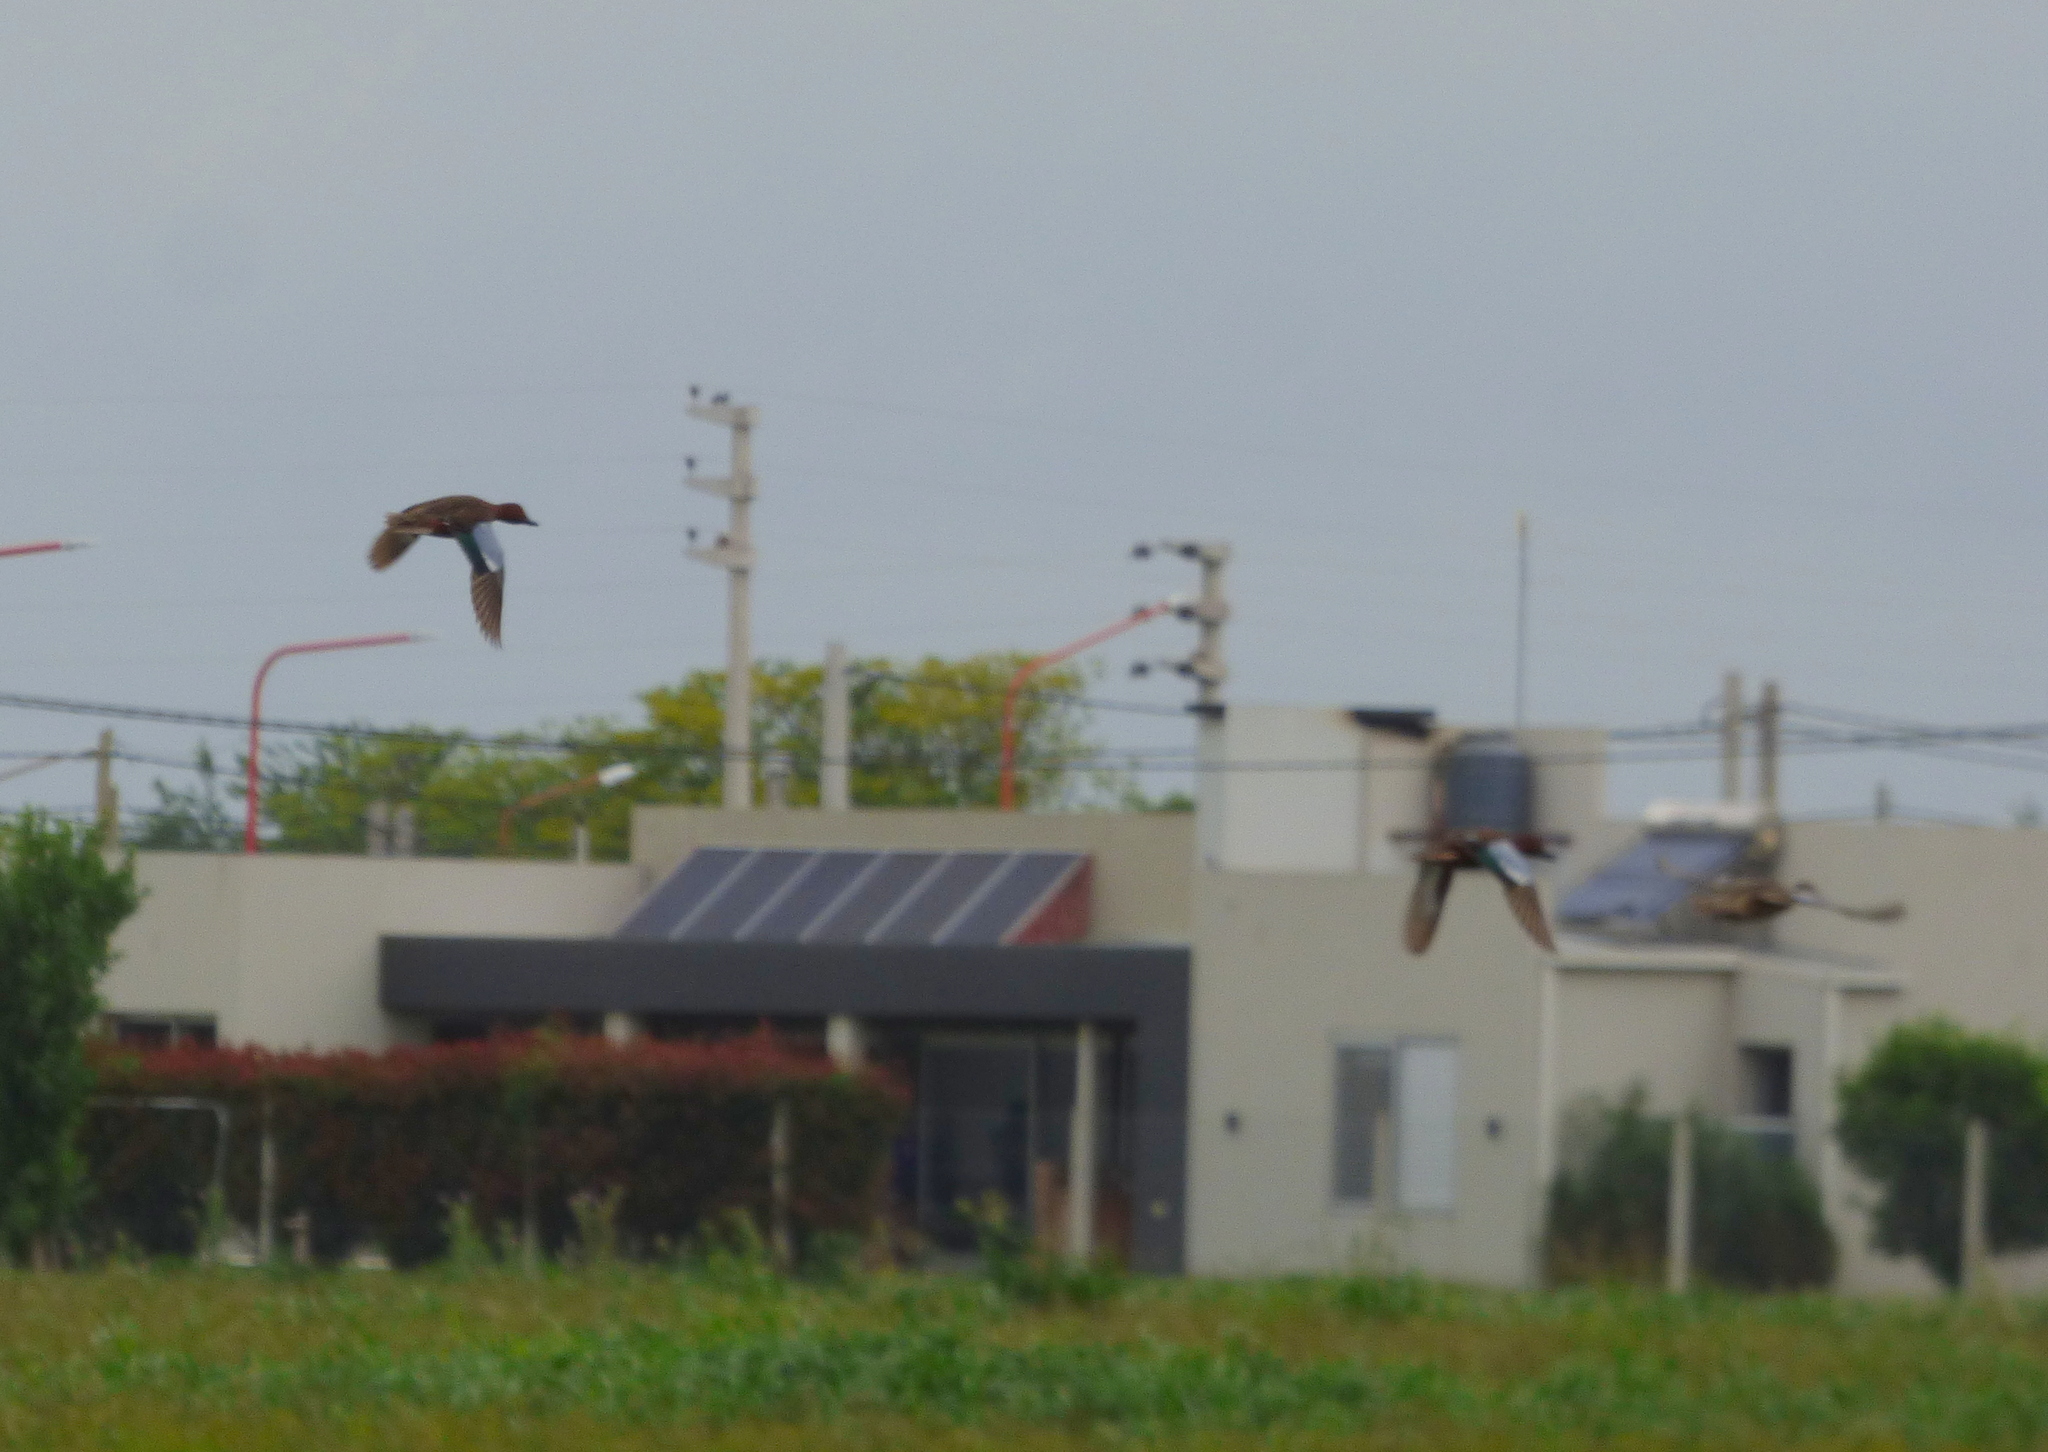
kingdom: Animalia
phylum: Chordata
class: Aves
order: Anseriformes
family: Anatidae
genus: Spatula
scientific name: Spatula cyanoptera
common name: Cinnamon teal
